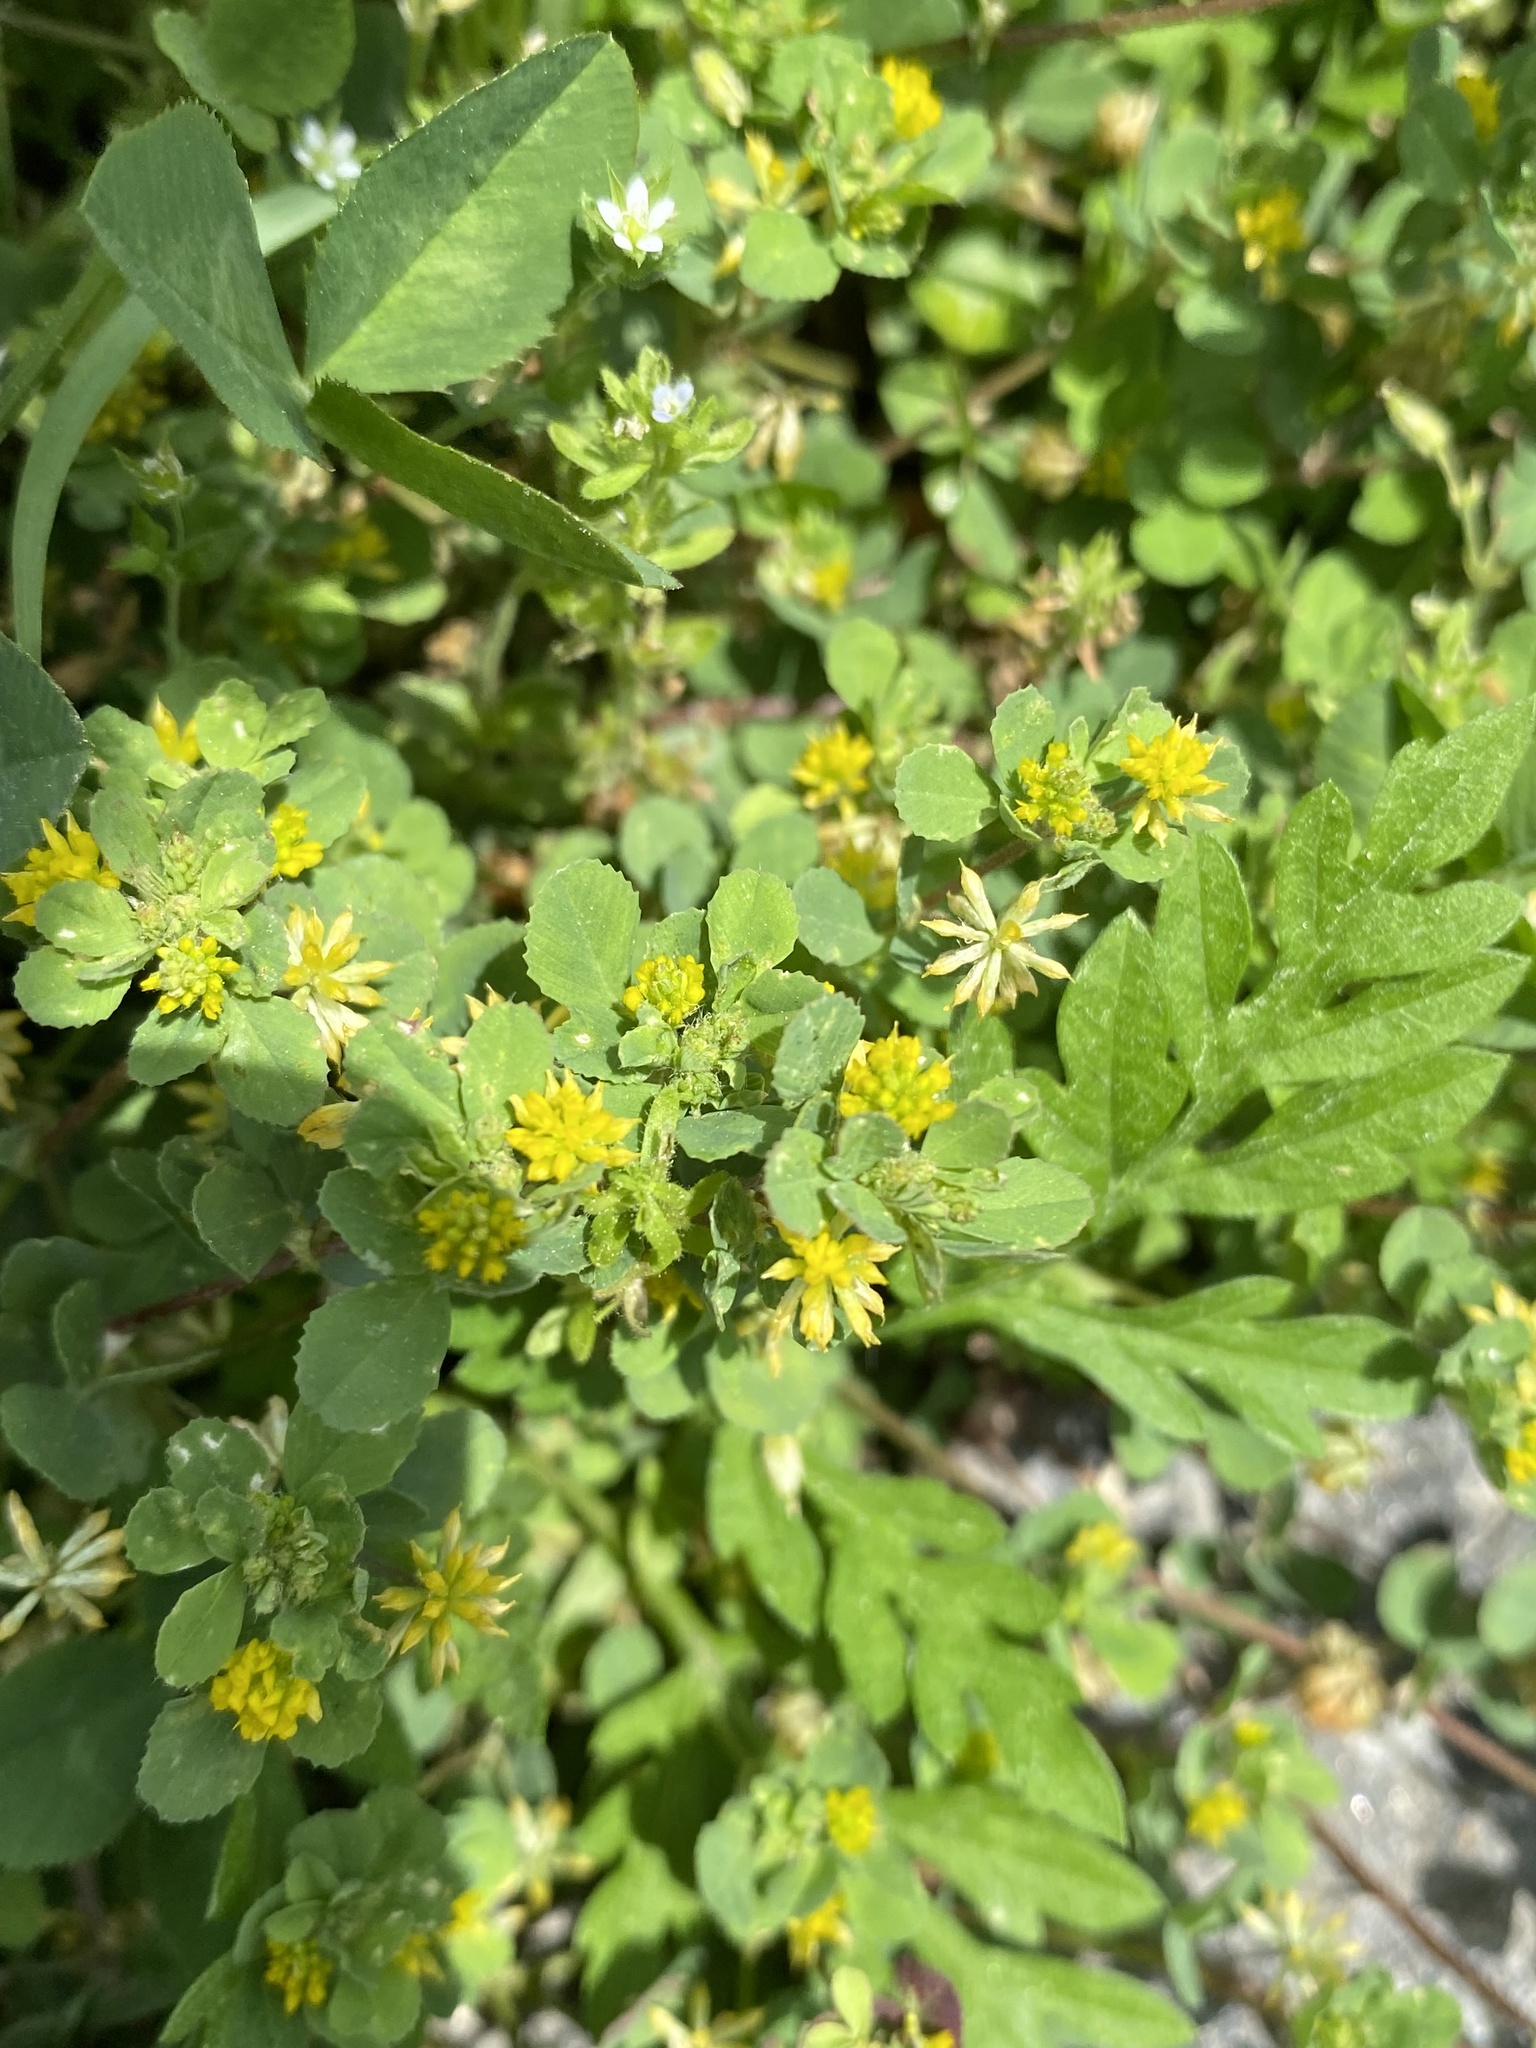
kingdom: Plantae
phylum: Tracheophyta
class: Magnoliopsida
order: Fabales
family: Fabaceae
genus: Trifolium
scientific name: Trifolium dubium
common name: Suckling clover
